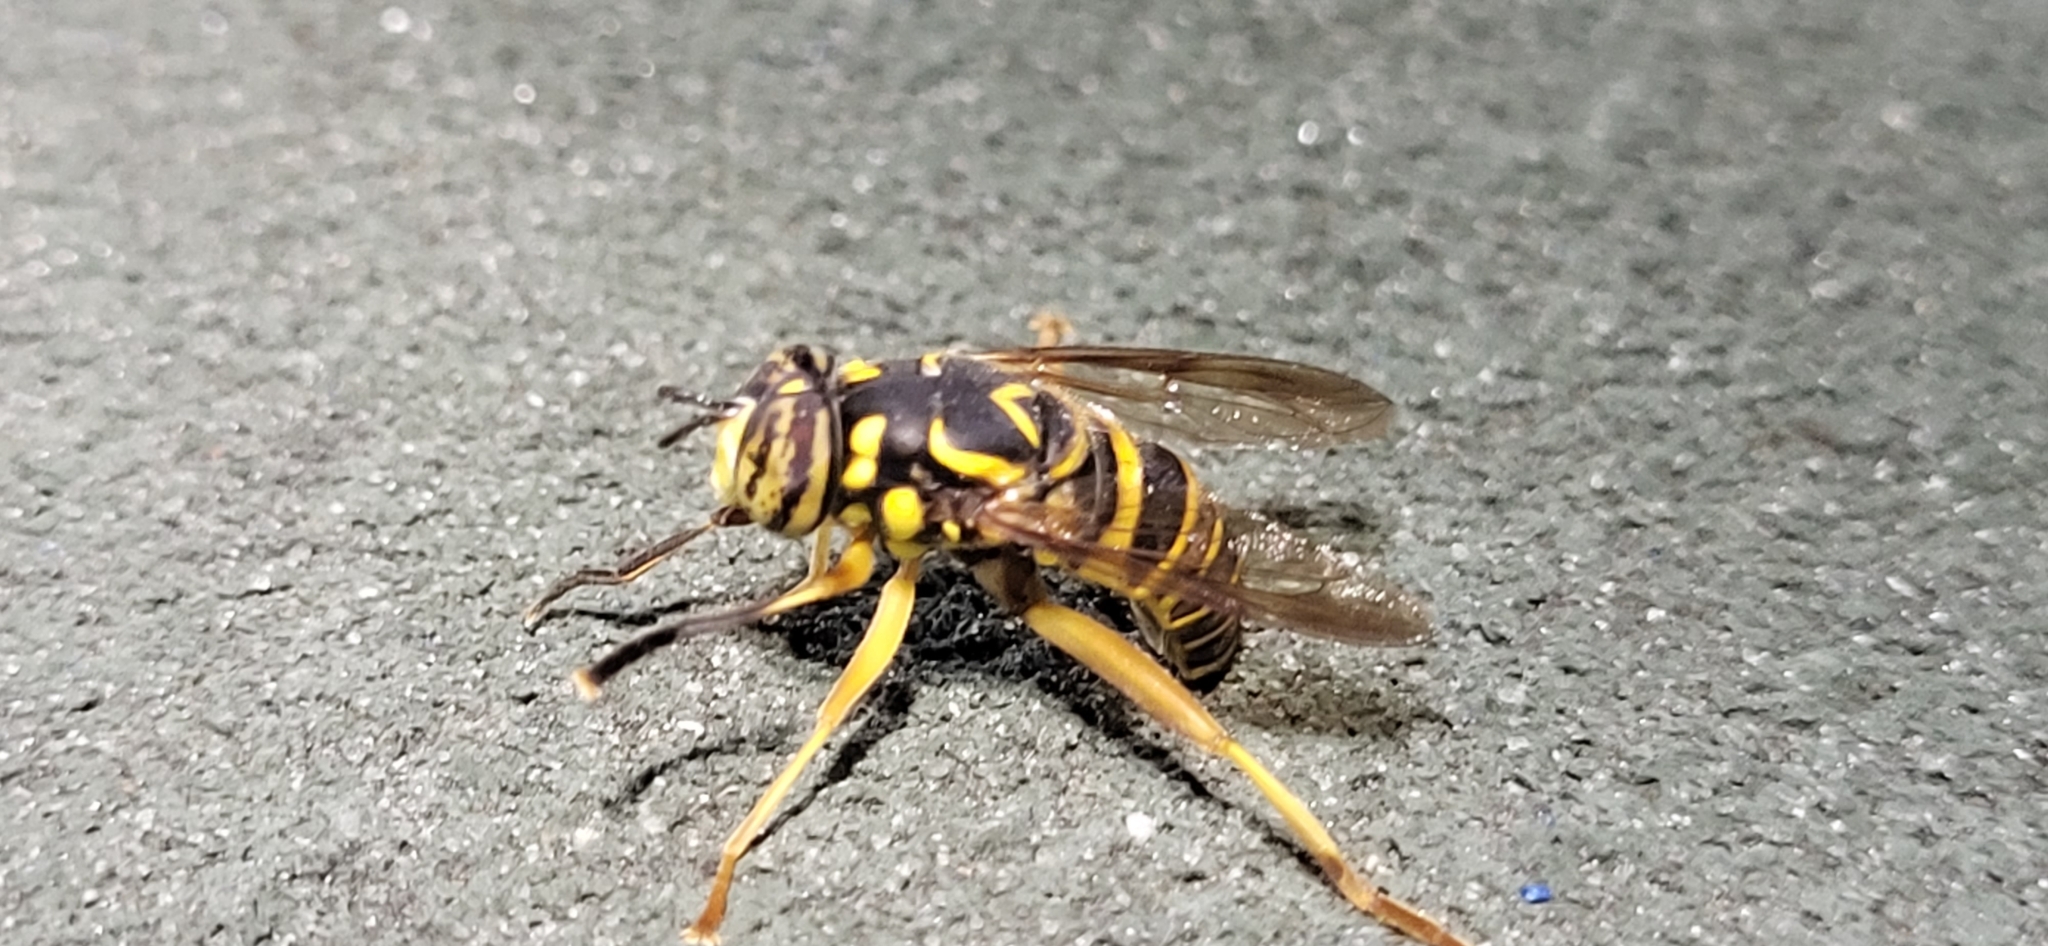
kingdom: Animalia
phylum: Arthropoda
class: Insecta
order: Diptera
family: Syrphidae
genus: Spilomyia
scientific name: Spilomyia longicornis
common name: Eastern hornet fly
